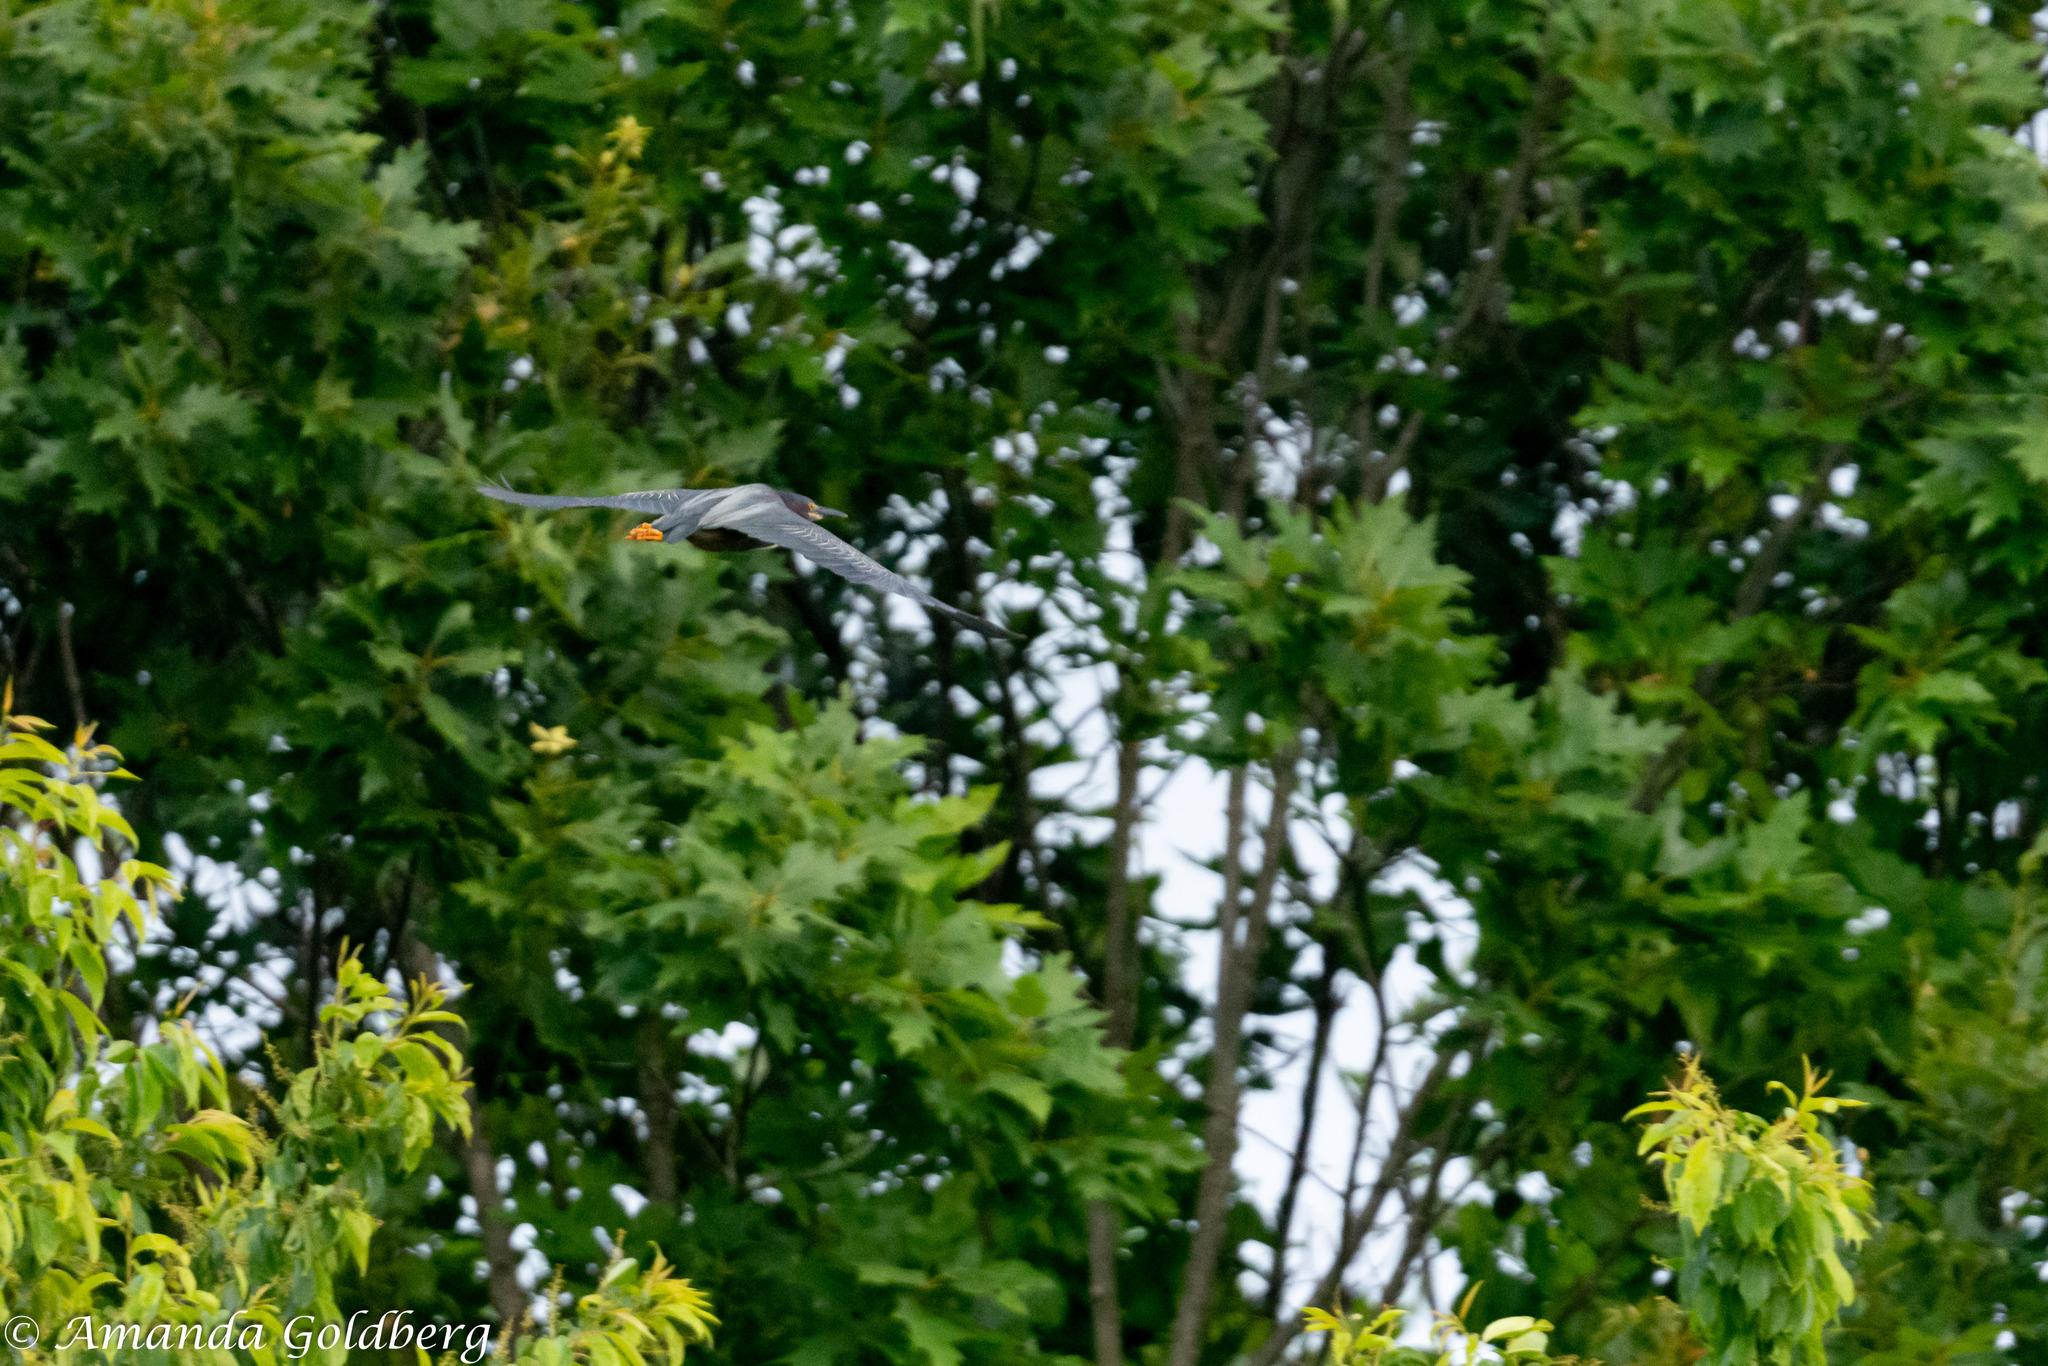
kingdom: Animalia
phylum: Chordata
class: Aves
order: Pelecaniformes
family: Ardeidae
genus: Butorides
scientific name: Butorides virescens
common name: Green heron
